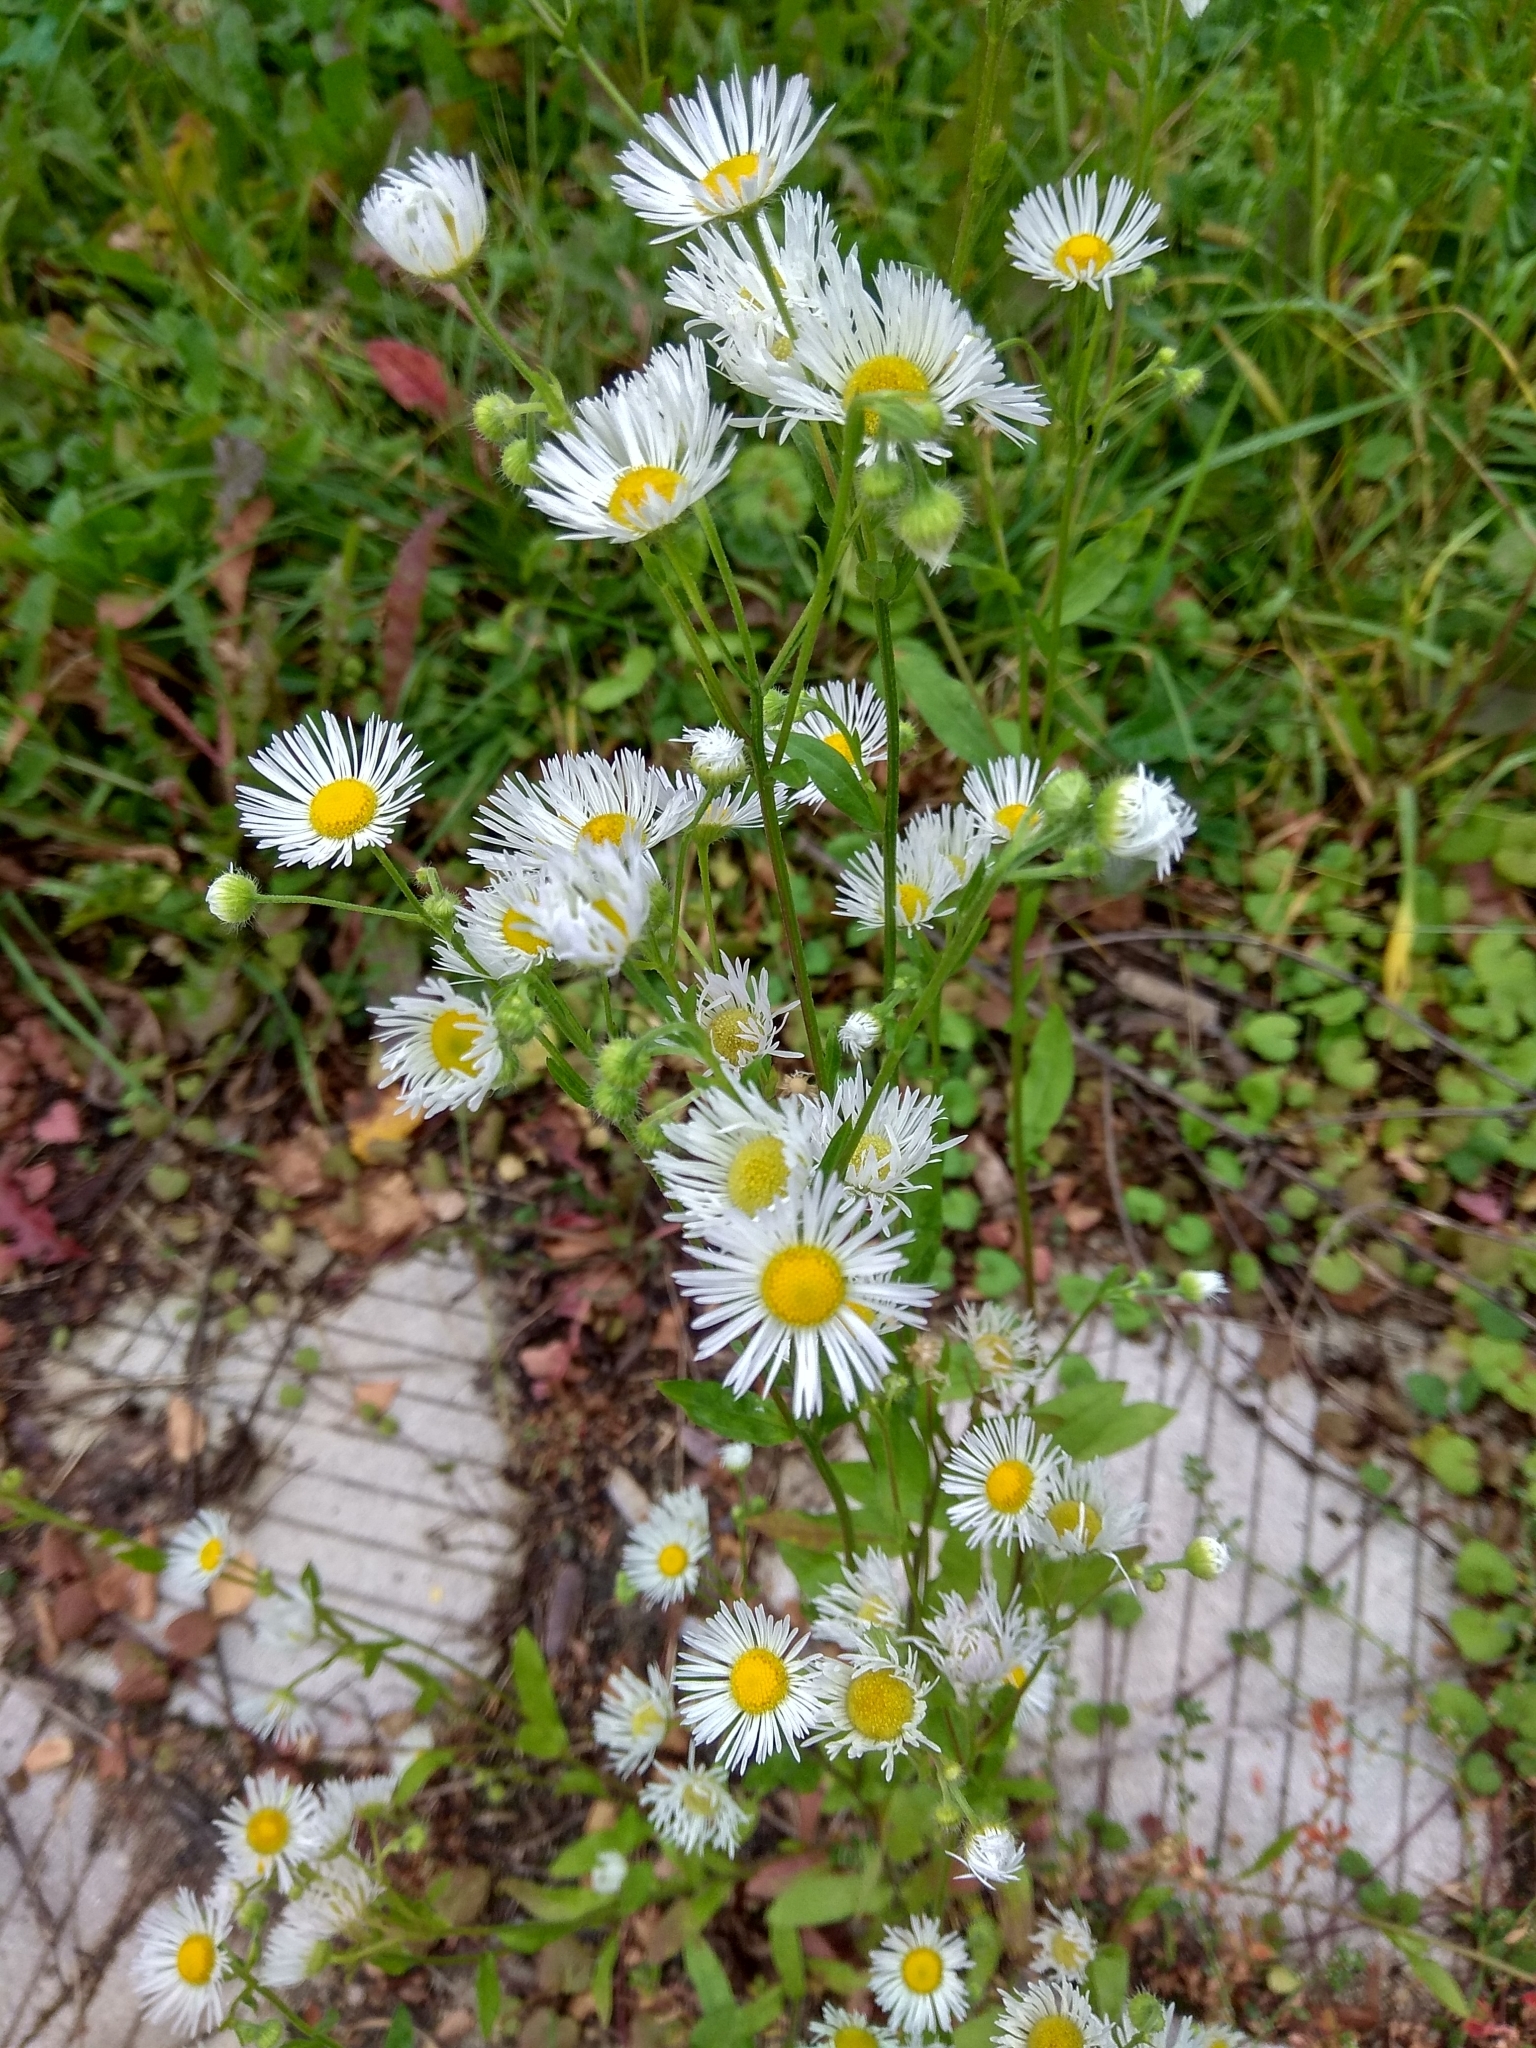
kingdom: Plantae
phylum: Tracheophyta
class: Magnoliopsida
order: Asterales
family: Asteraceae
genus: Erigeron
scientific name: Erigeron annuus
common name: Tall fleabane
